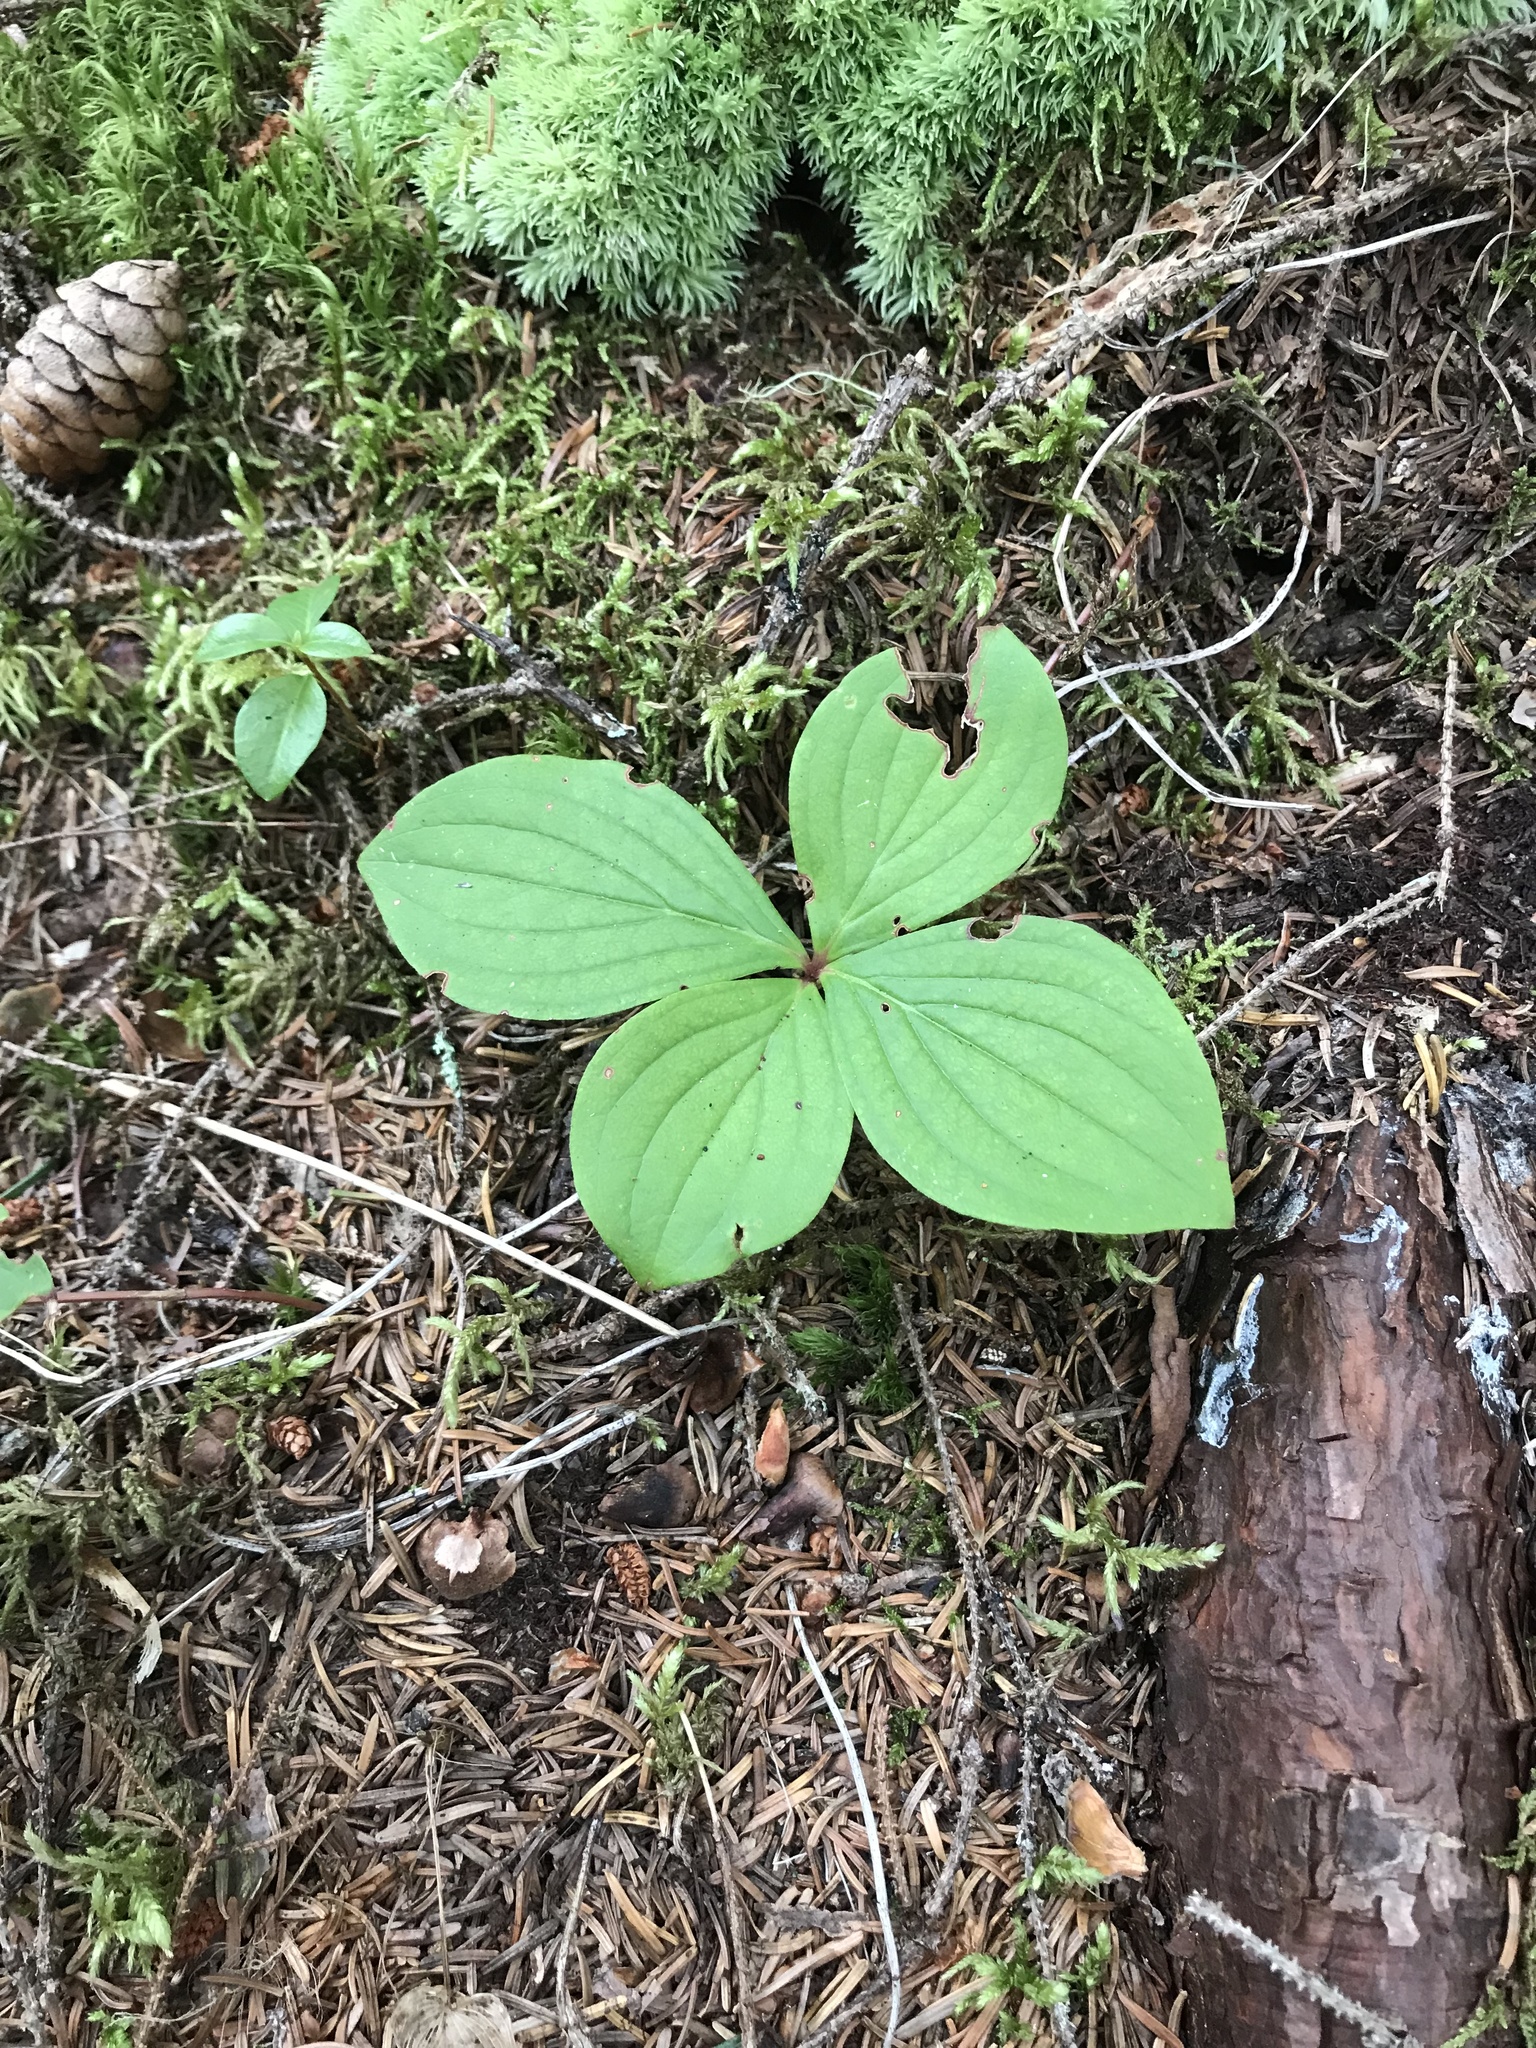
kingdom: Plantae
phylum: Tracheophyta
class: Magnoliopsida
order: Cornales
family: Cornaceae
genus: Cornus
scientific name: Cornus canadensis
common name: Creeping dogwood
